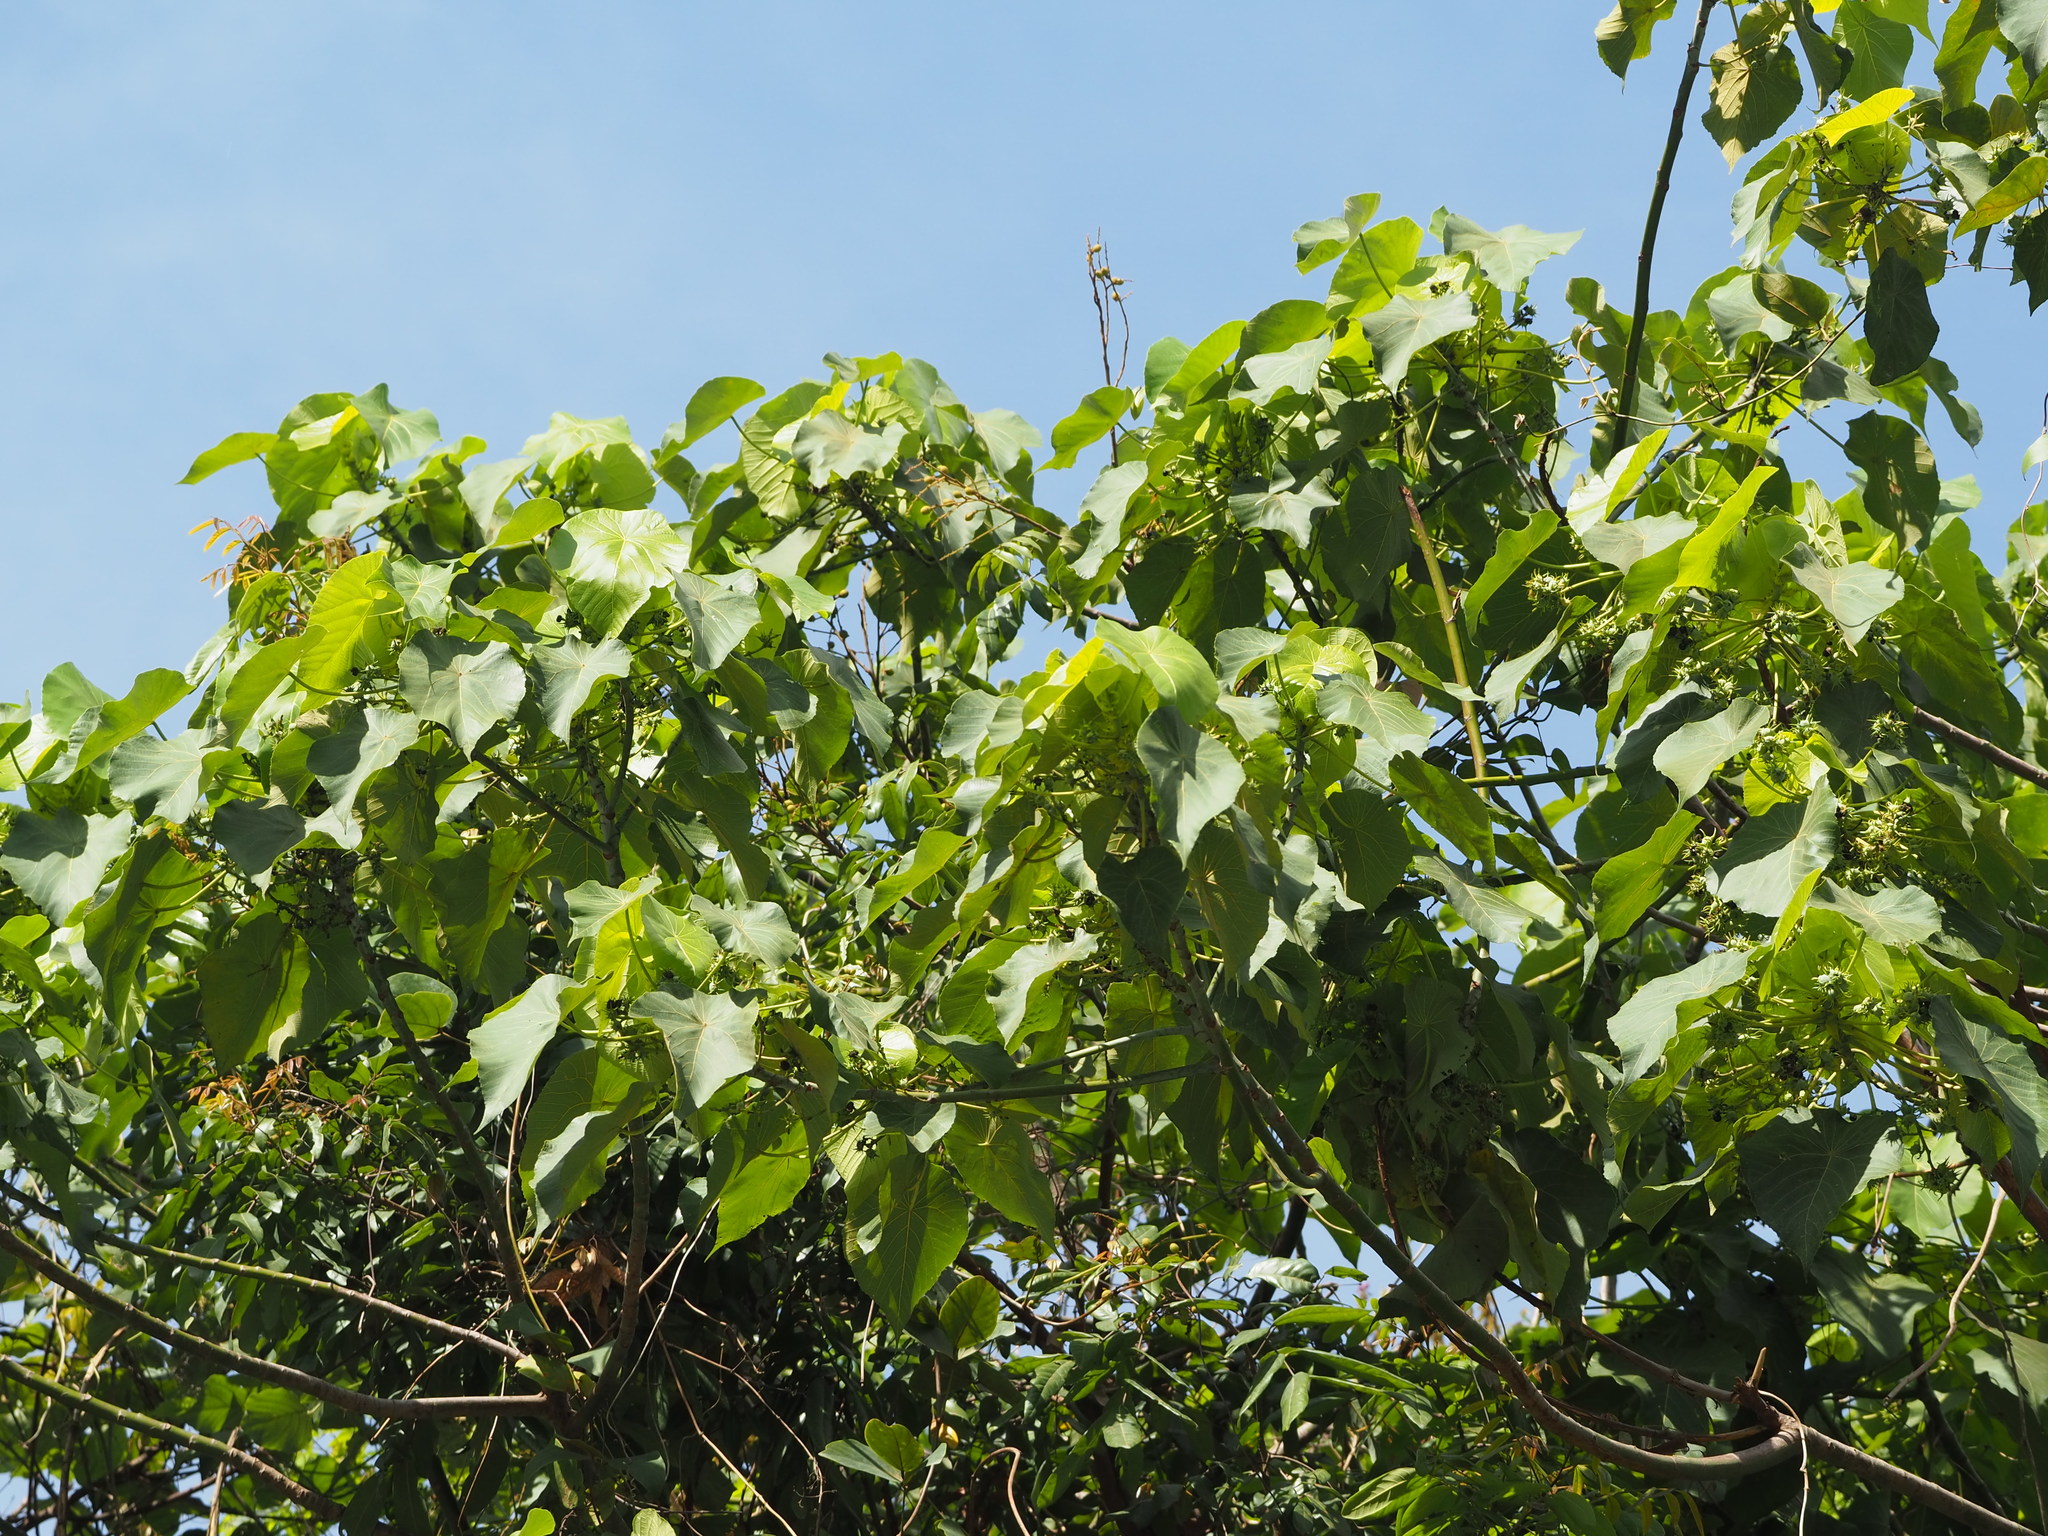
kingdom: Plantae
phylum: Tracheophyta
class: Magnoliopsida
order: Malpighiales
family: Euphorbiaceae
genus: Macaranga
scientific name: Macaranga tanarius
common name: Parasol leaf tree
